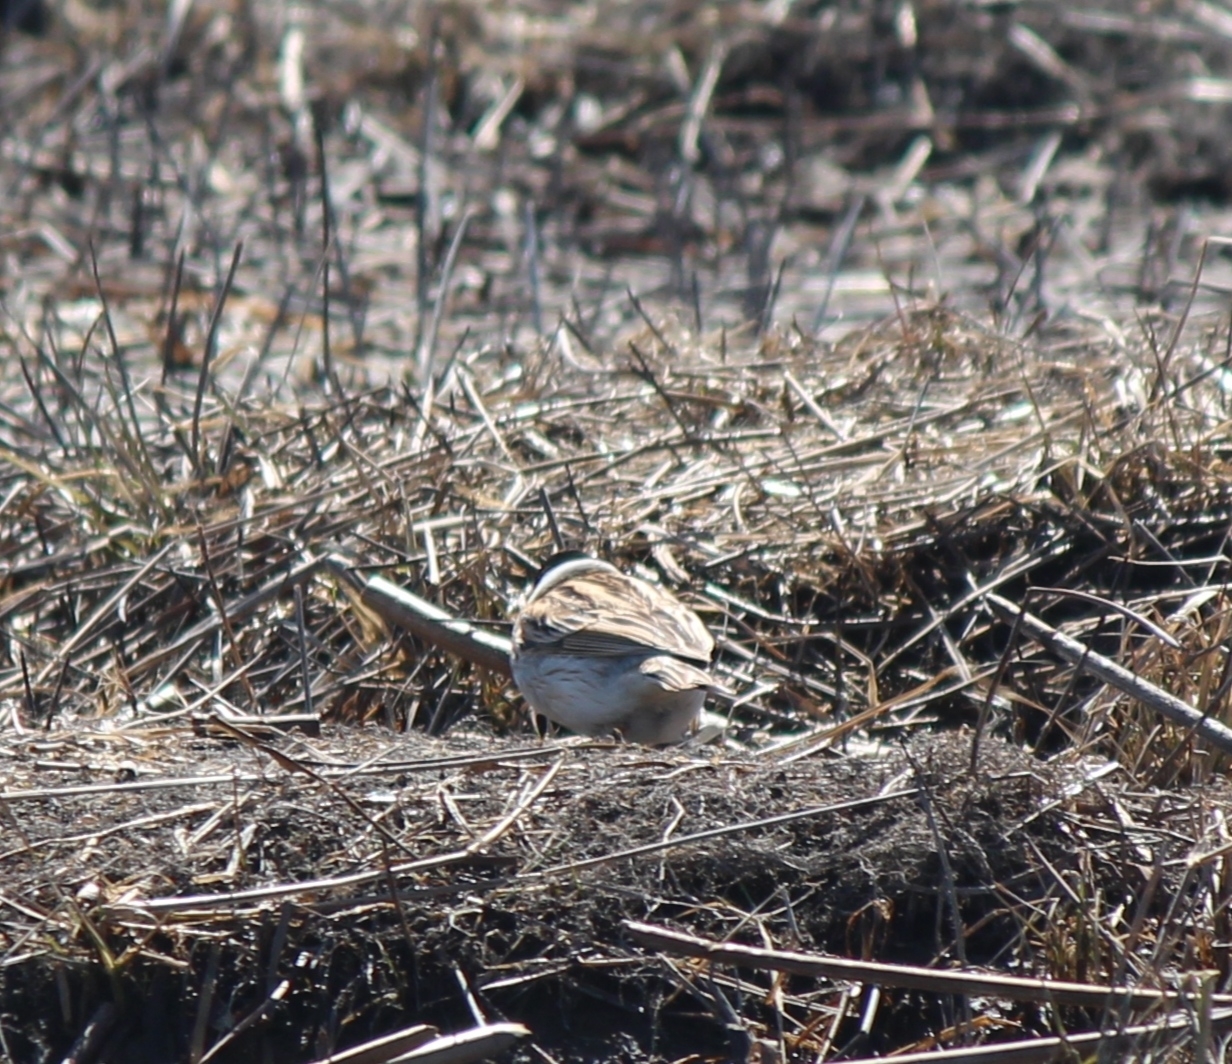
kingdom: Animalia
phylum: Chordata
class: Aves
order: Passeriformes
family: Emberizidae
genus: Emberiza
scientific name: Emberiza schoeniclus
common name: Reed bunting
